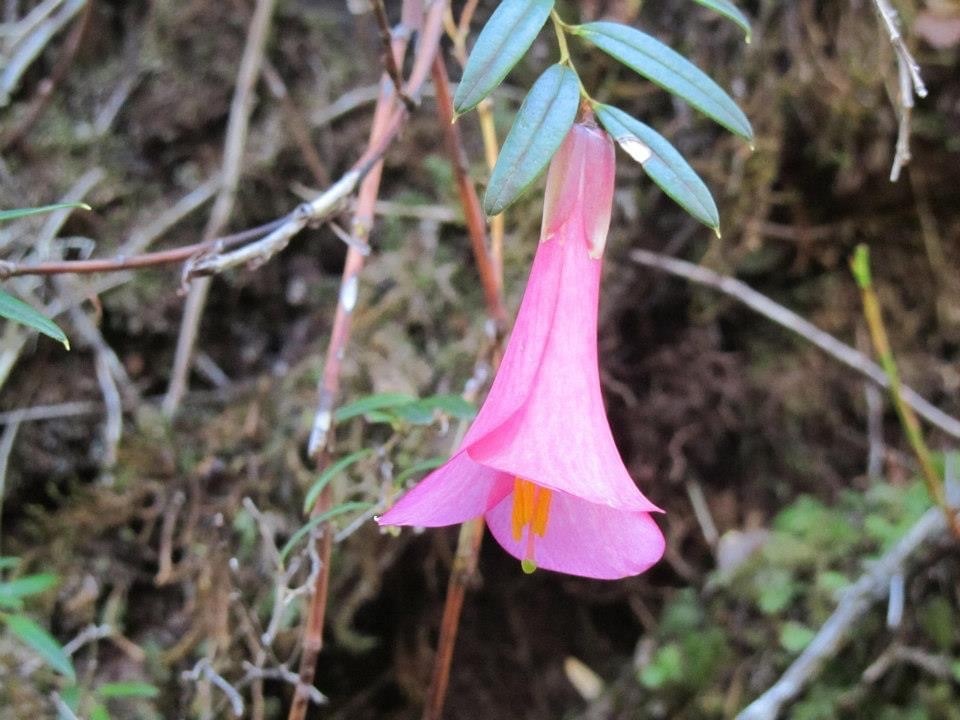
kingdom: Plantae
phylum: Tracheophyta
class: Liliopsida
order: Liliales
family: Philesiaceae
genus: Philesia
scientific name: Philesia magellanica
